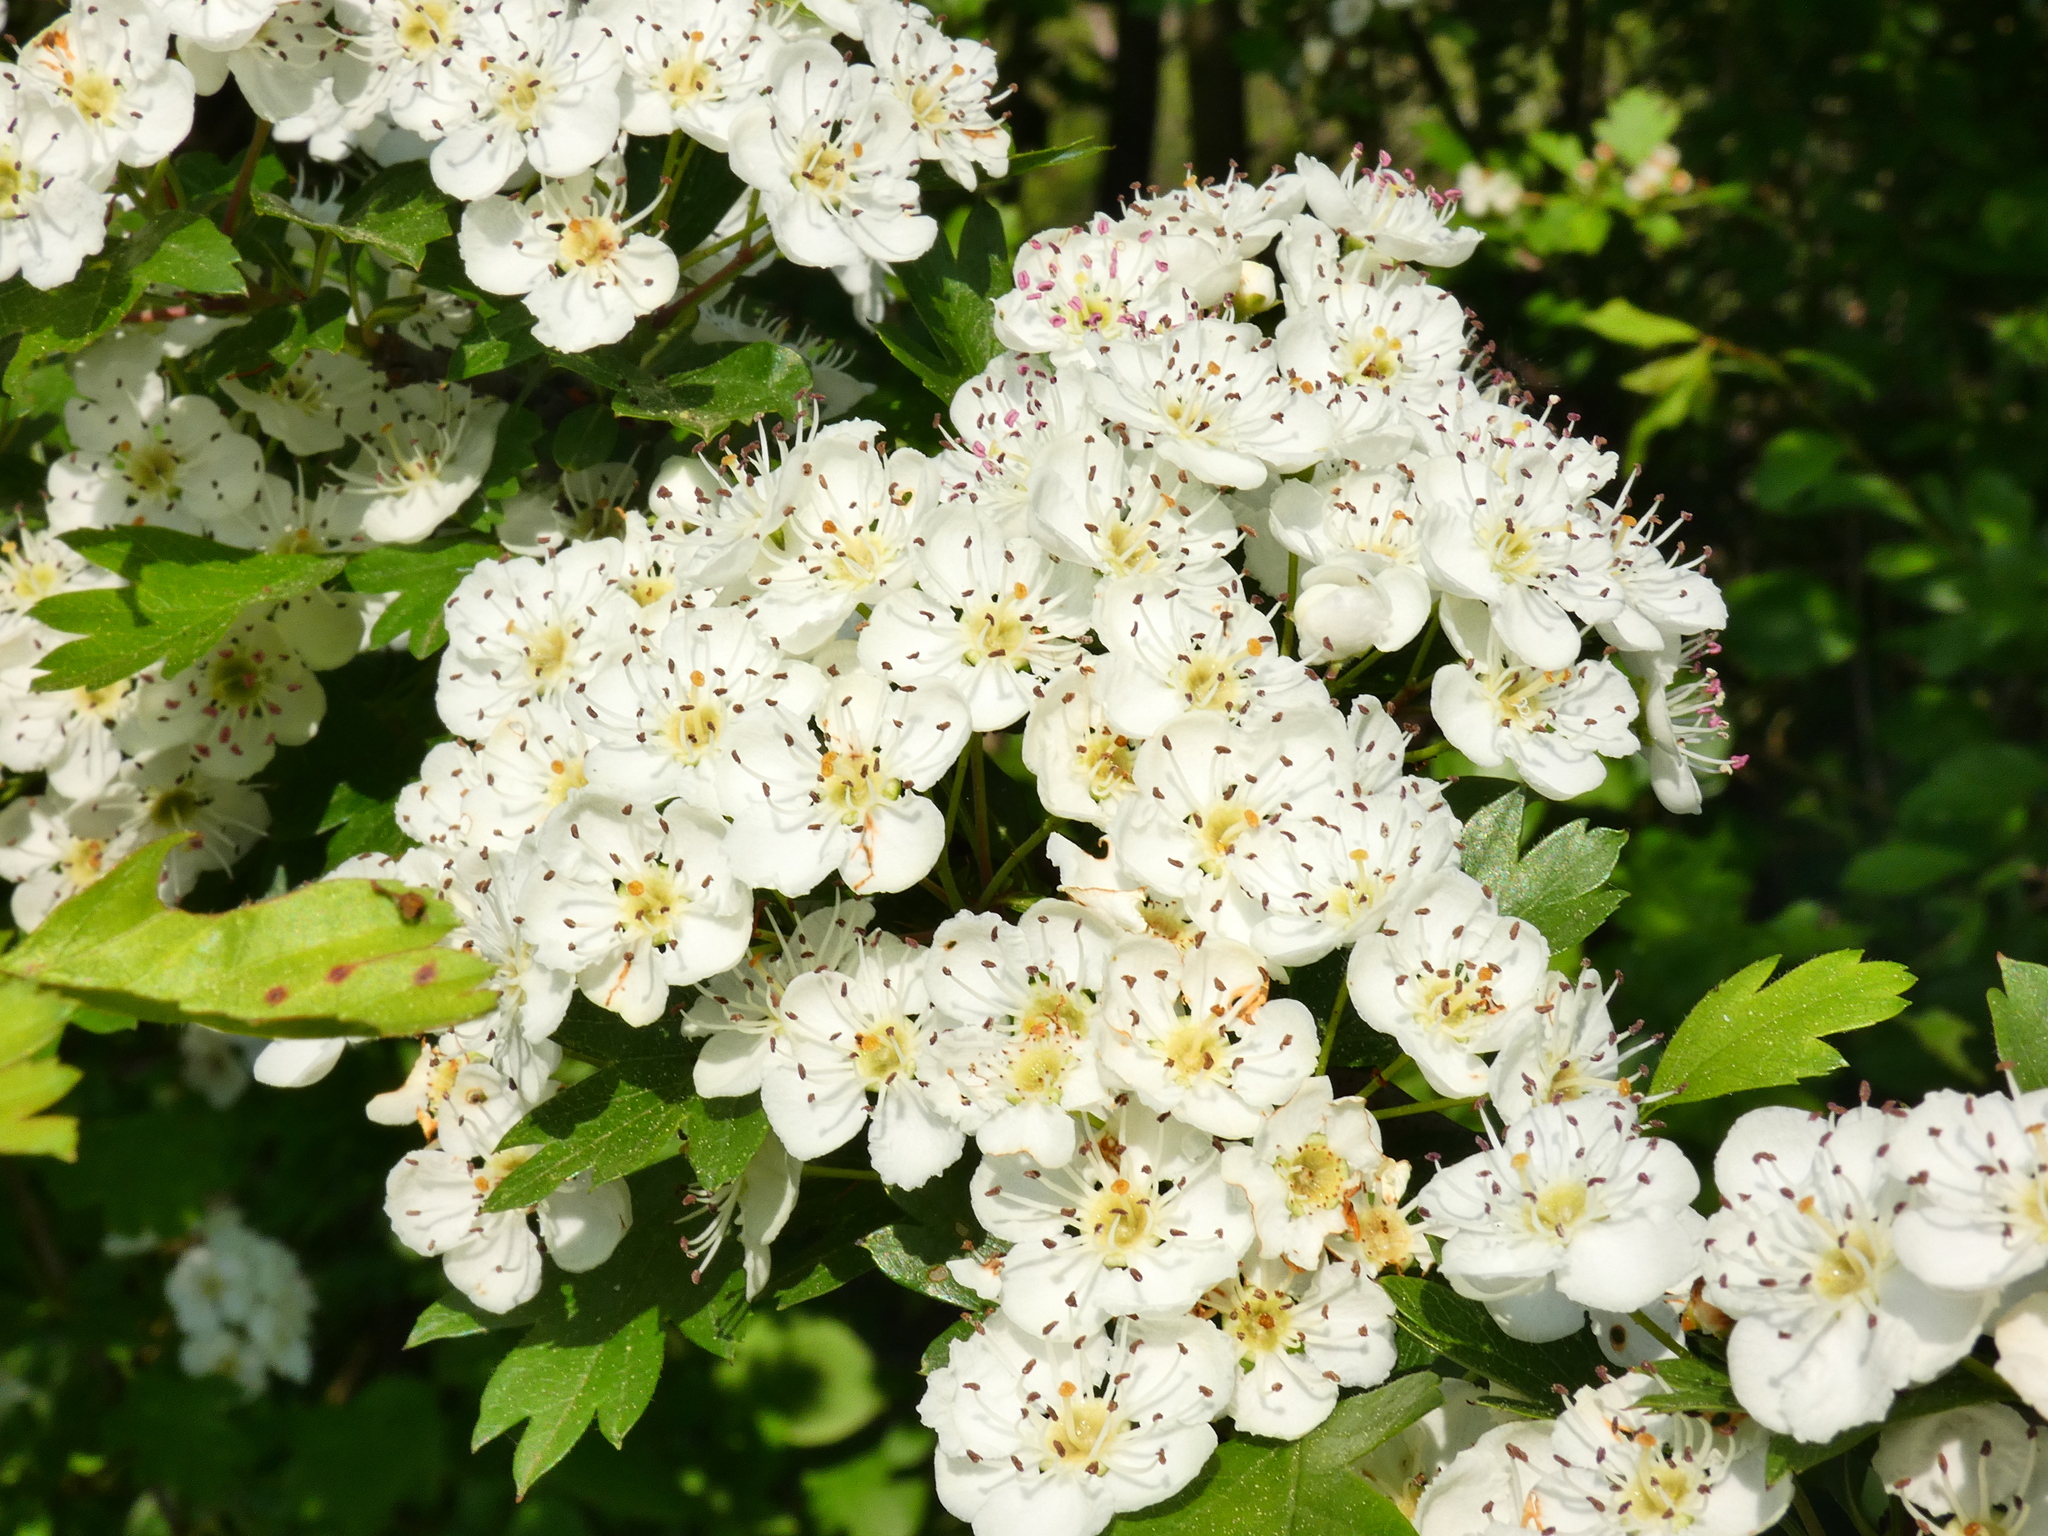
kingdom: Plantae
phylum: Tracheophyta
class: Magnoliopsida
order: Rosales
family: Rosaceae
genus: Crataegus
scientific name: Crataegus monogyna
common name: Hawthorn
